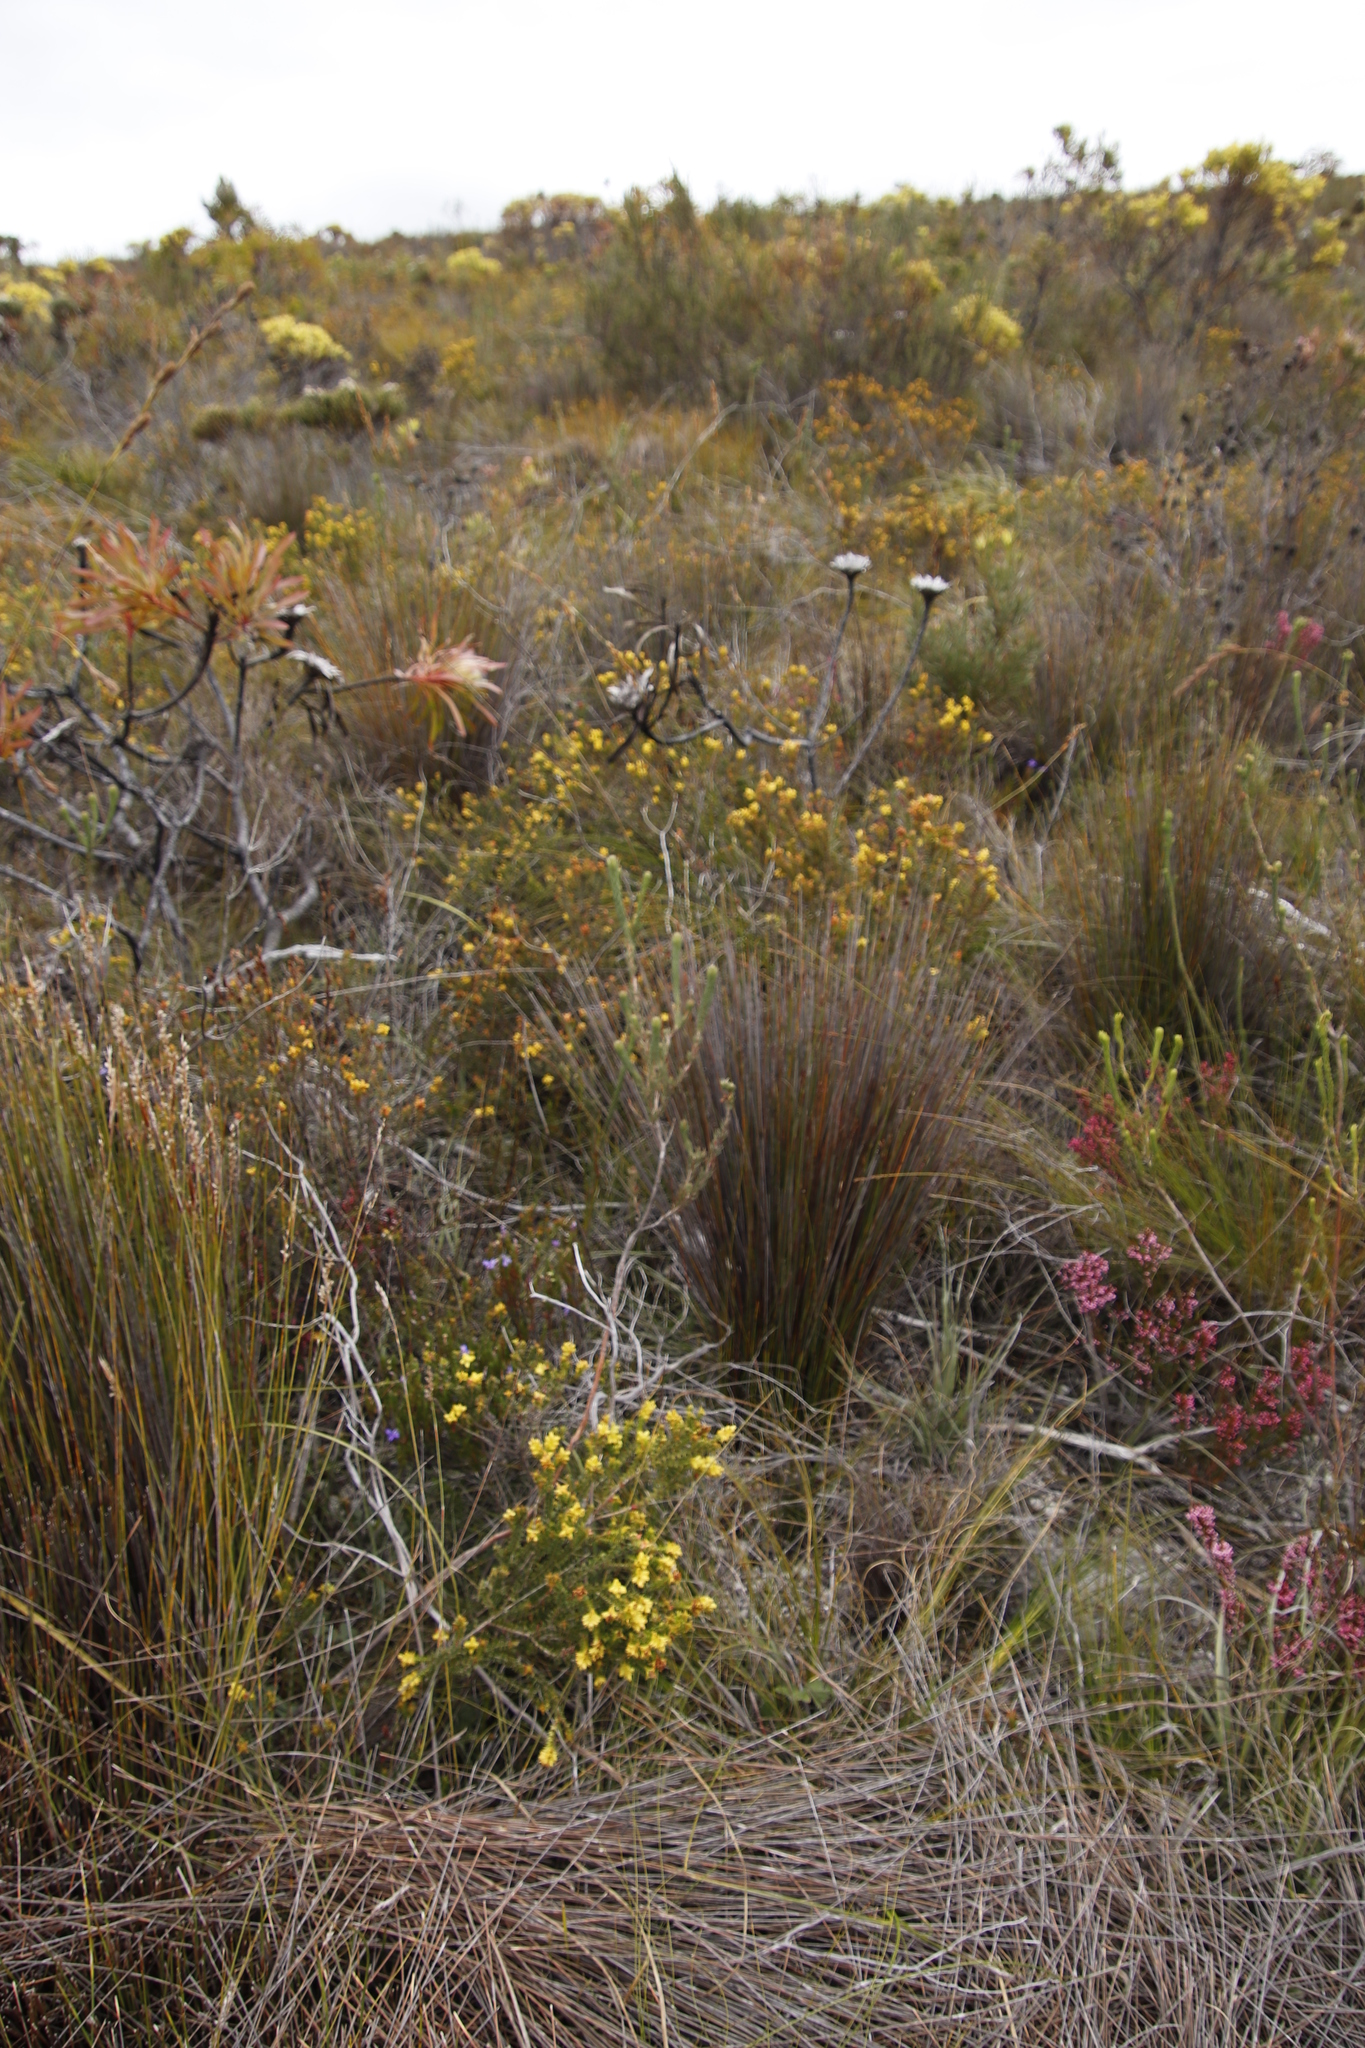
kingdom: Plantae
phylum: Tracheophyta
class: Magnoliopsida
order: Myrtales
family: Penaeaceae
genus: Penaea
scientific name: Penaea mucronata
